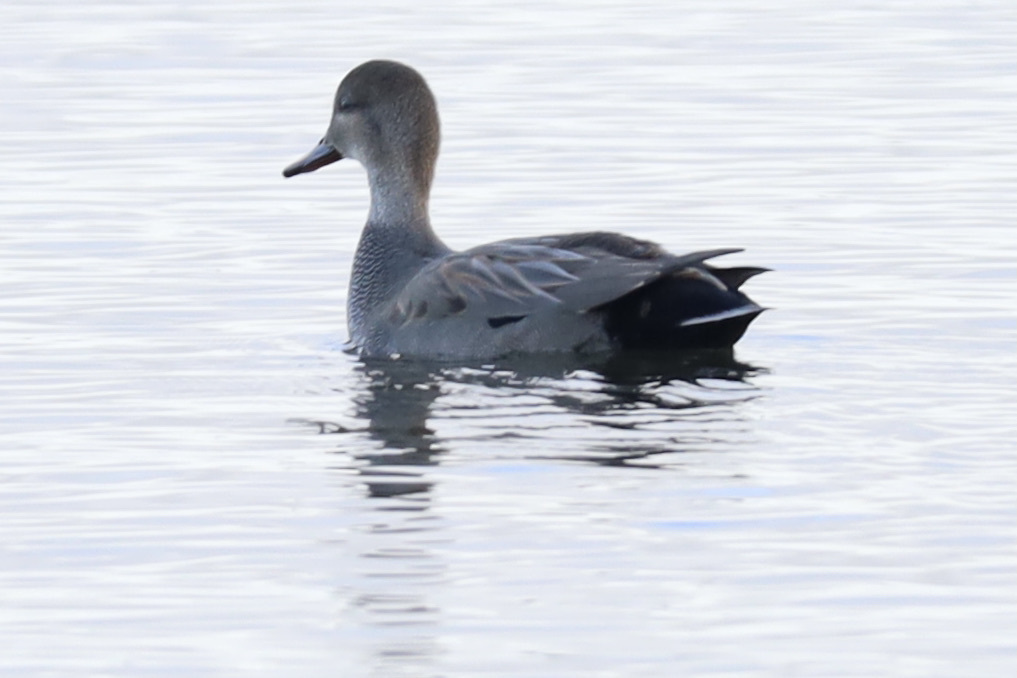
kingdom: Animalia
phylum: Chordata
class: Aves
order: Anseriformes
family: Anatidae
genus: Mareca
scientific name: Mareca strepera
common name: Gadwall
